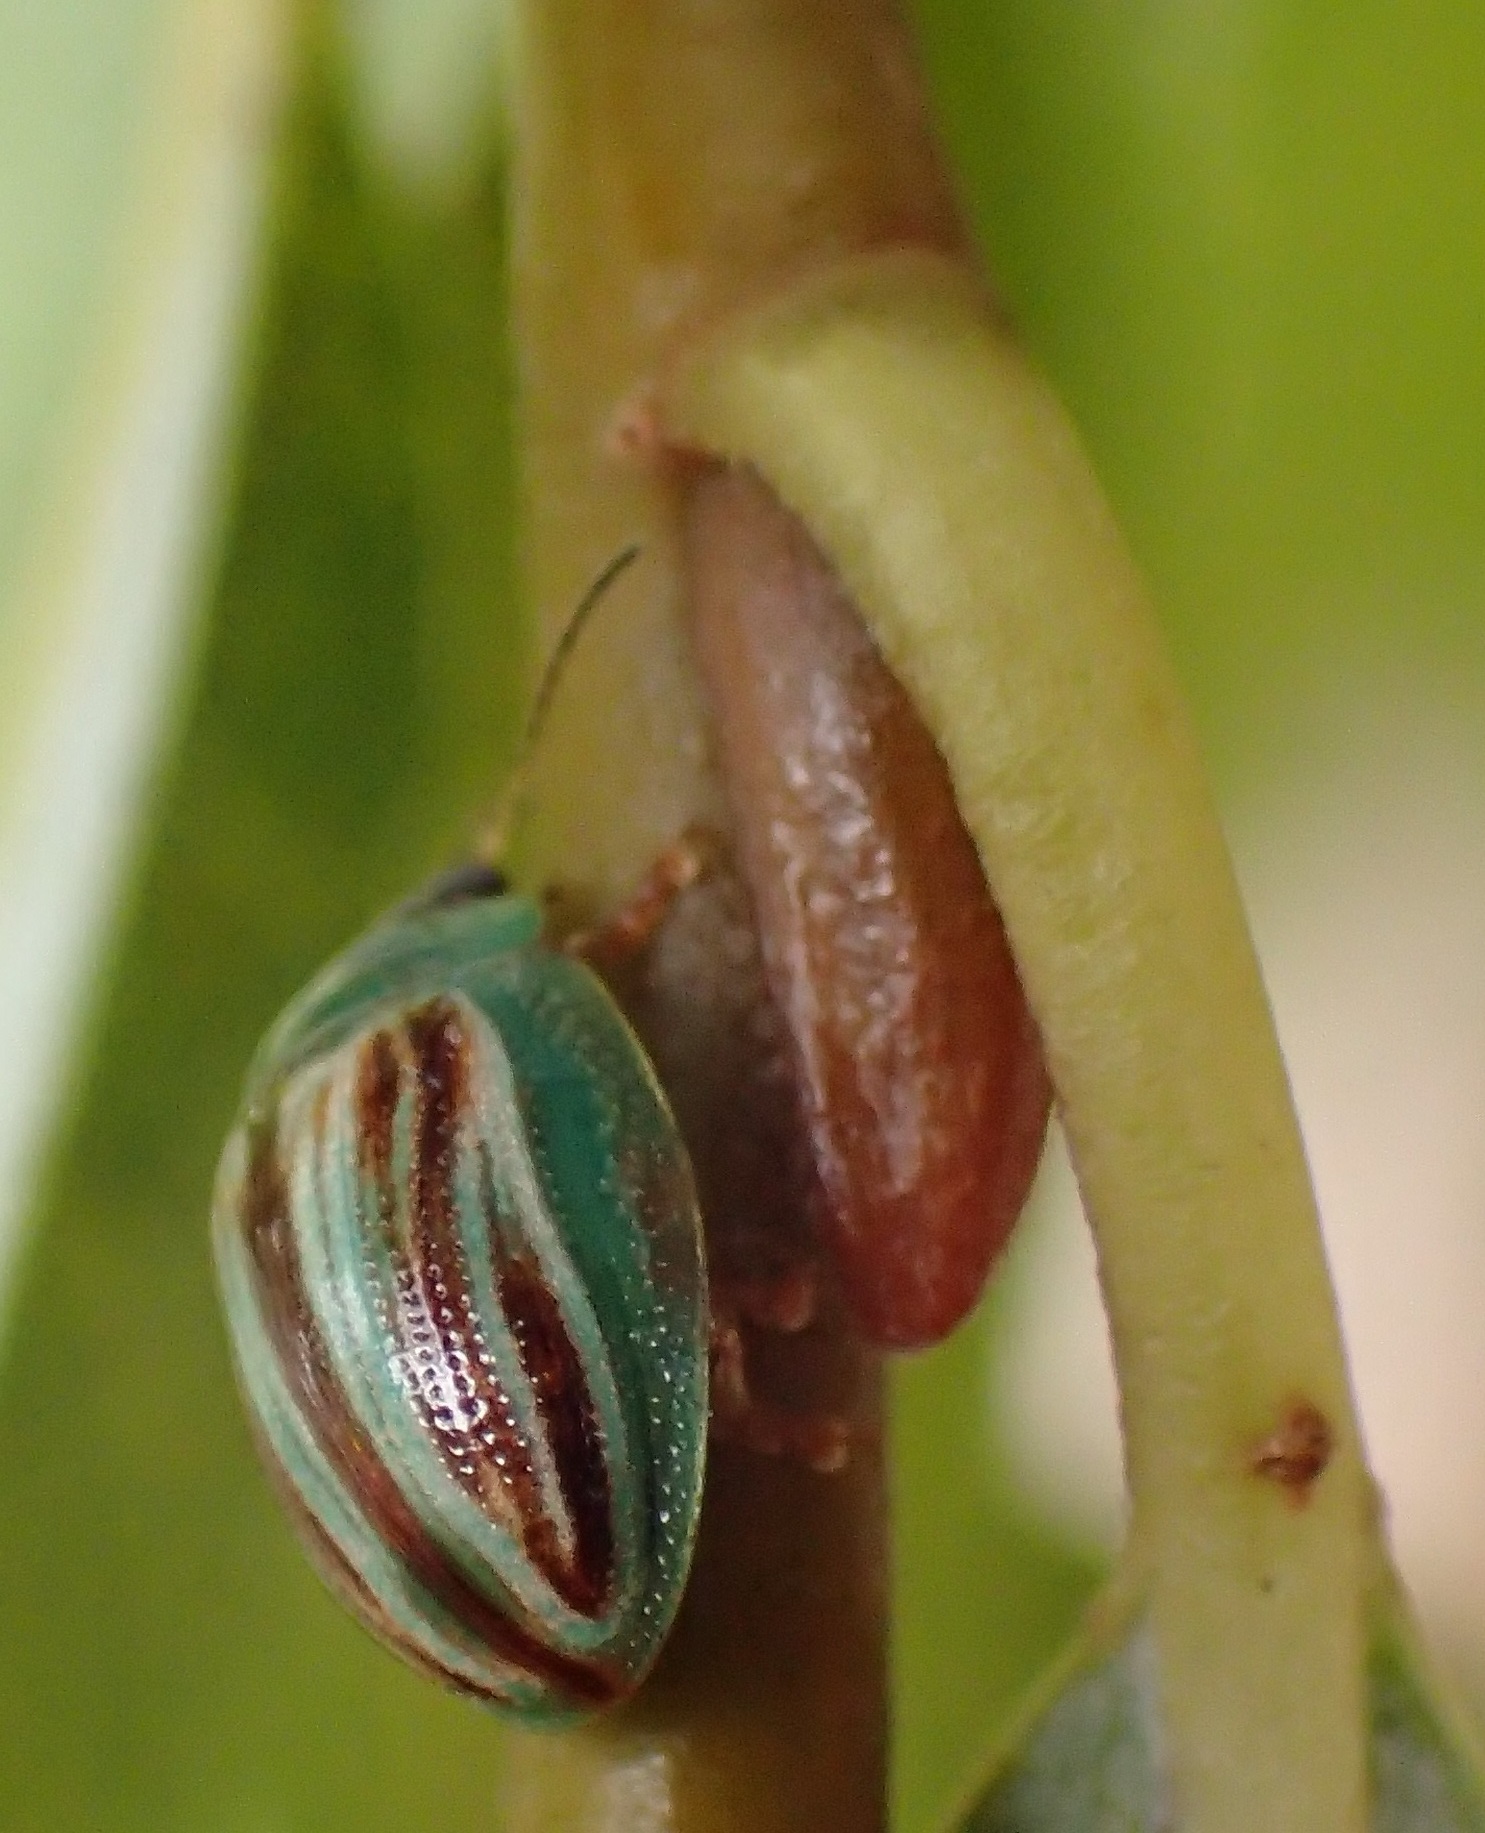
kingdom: Animalia
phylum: Arthropoda
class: Insecta
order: Coleoptera
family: Chrysomelidae
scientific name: Chrysomelidae
